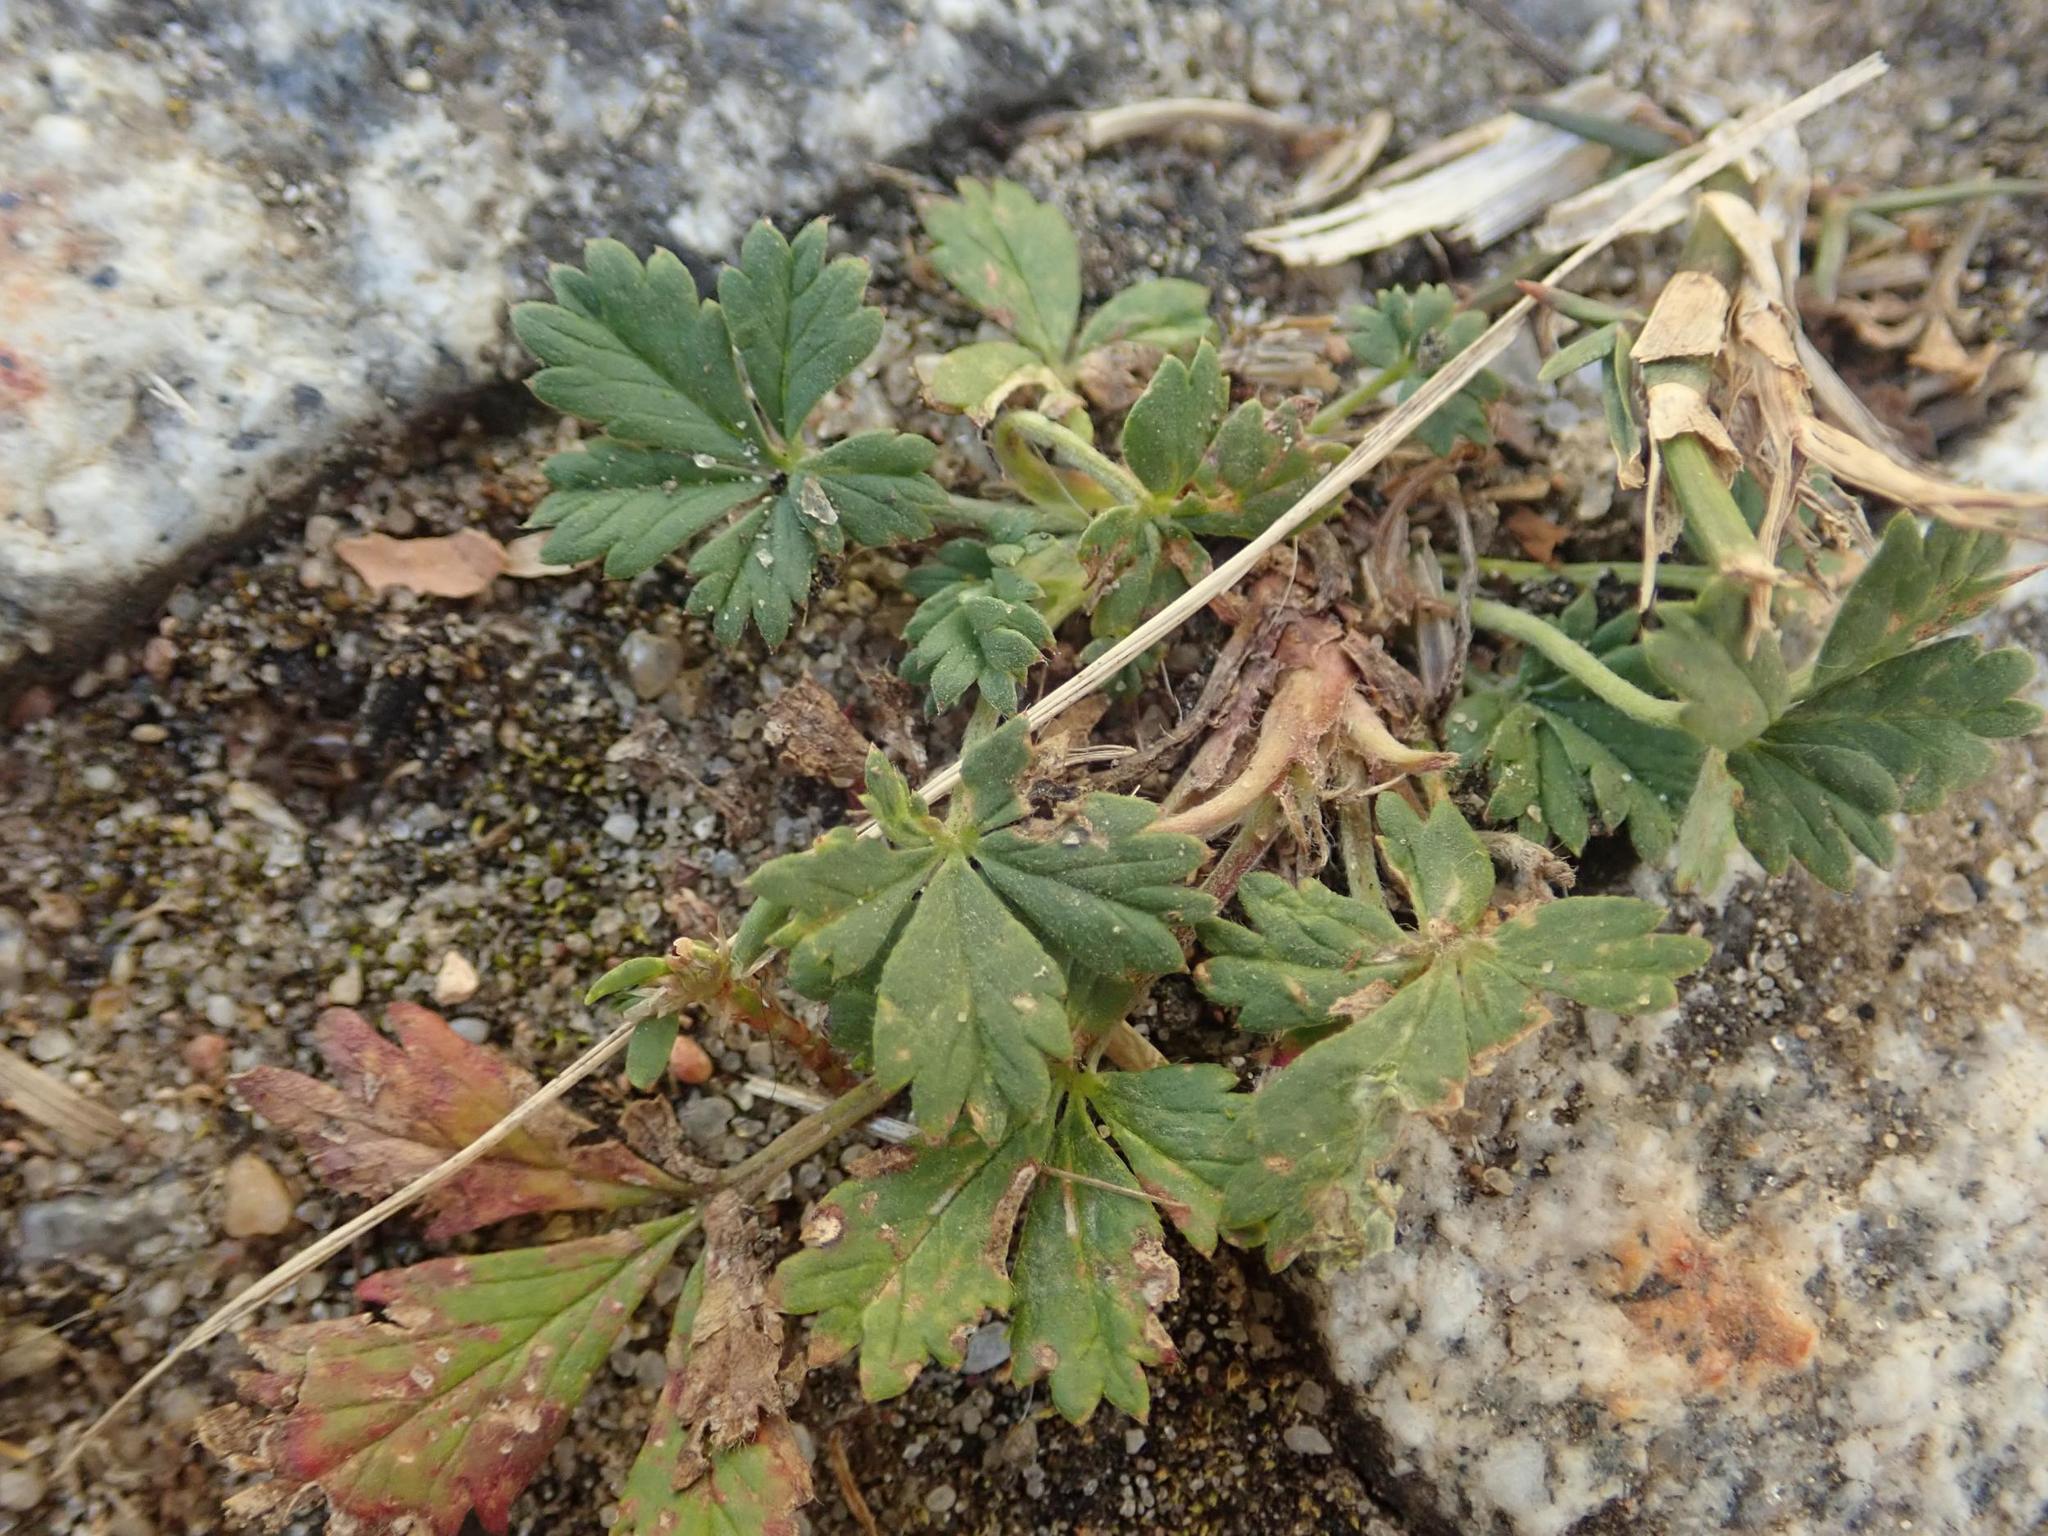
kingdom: Plantae
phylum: Tracheophyta
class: Magnoliopsida
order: Rosales
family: Rosaceae
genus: Potentilla
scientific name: Potentilla argentea
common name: Hoary cinquefoil
